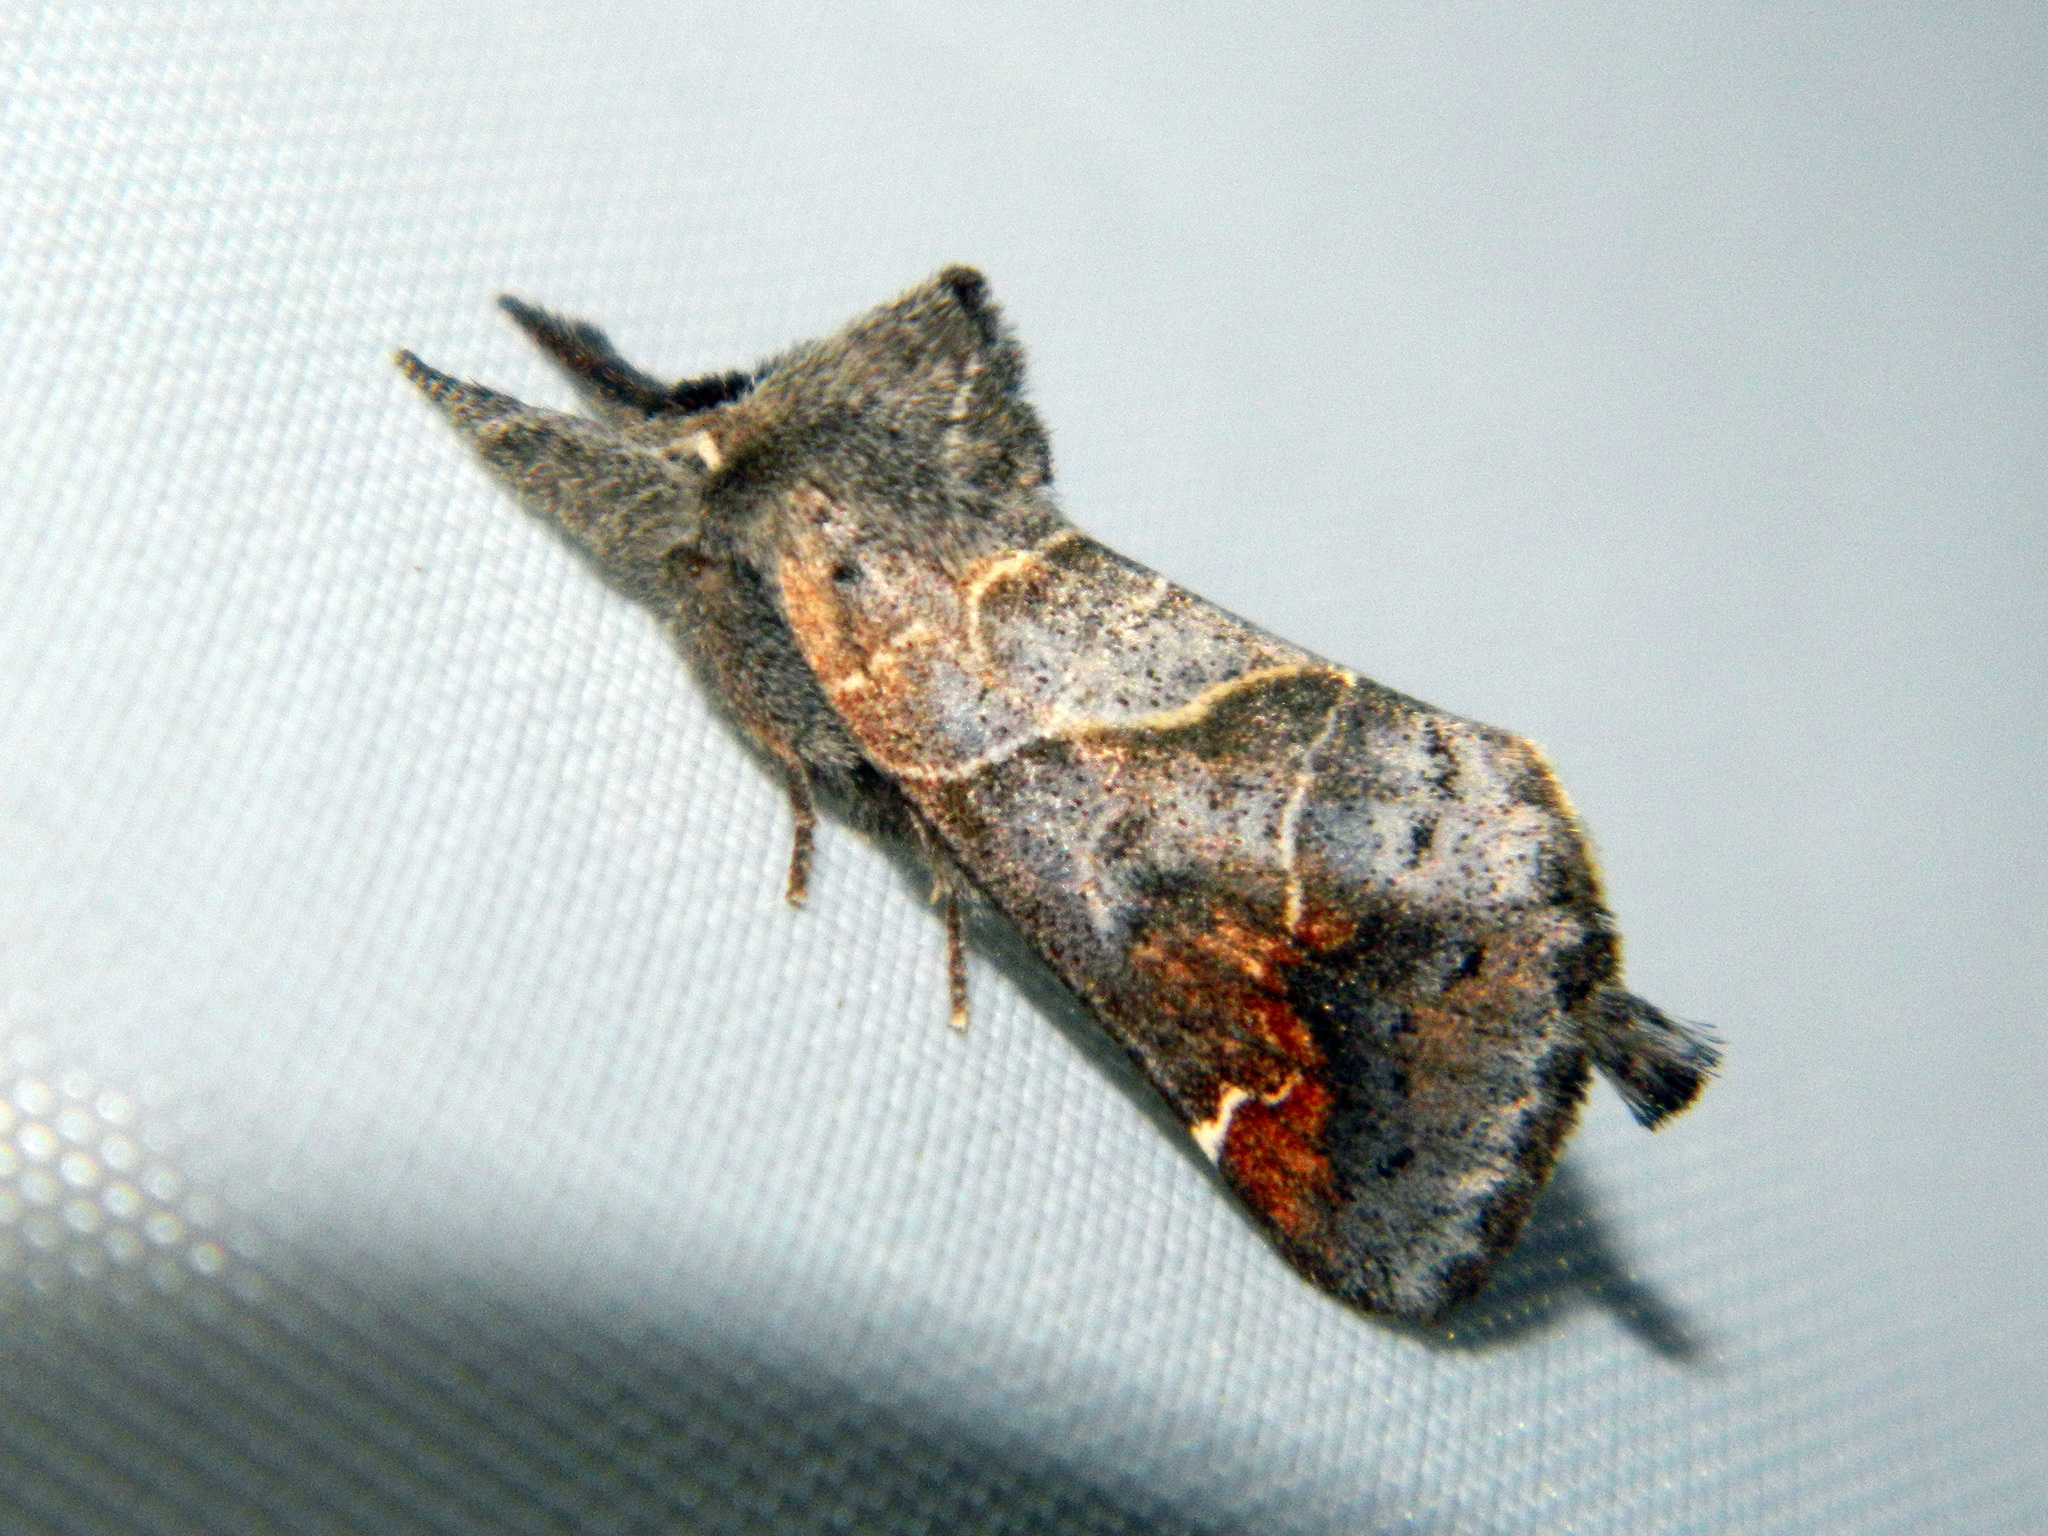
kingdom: Animalia
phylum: Arthropoda
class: Insecta
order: Lepidoptera
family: Notodontidae
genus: Clostera
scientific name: Clostera apicalis
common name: Apical prominent
